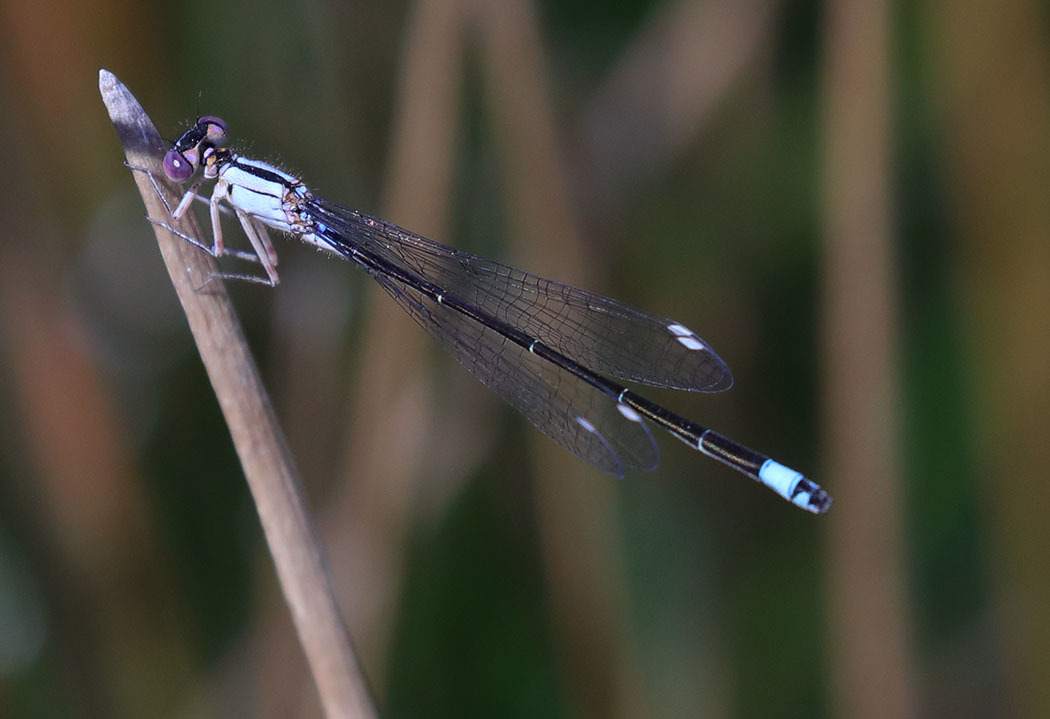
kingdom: Animalia
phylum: Arthropoda
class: Insecta
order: Odonata
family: Coenagrionidae
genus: Ischnura
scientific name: Ischnura cervula
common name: Pacific forktail
